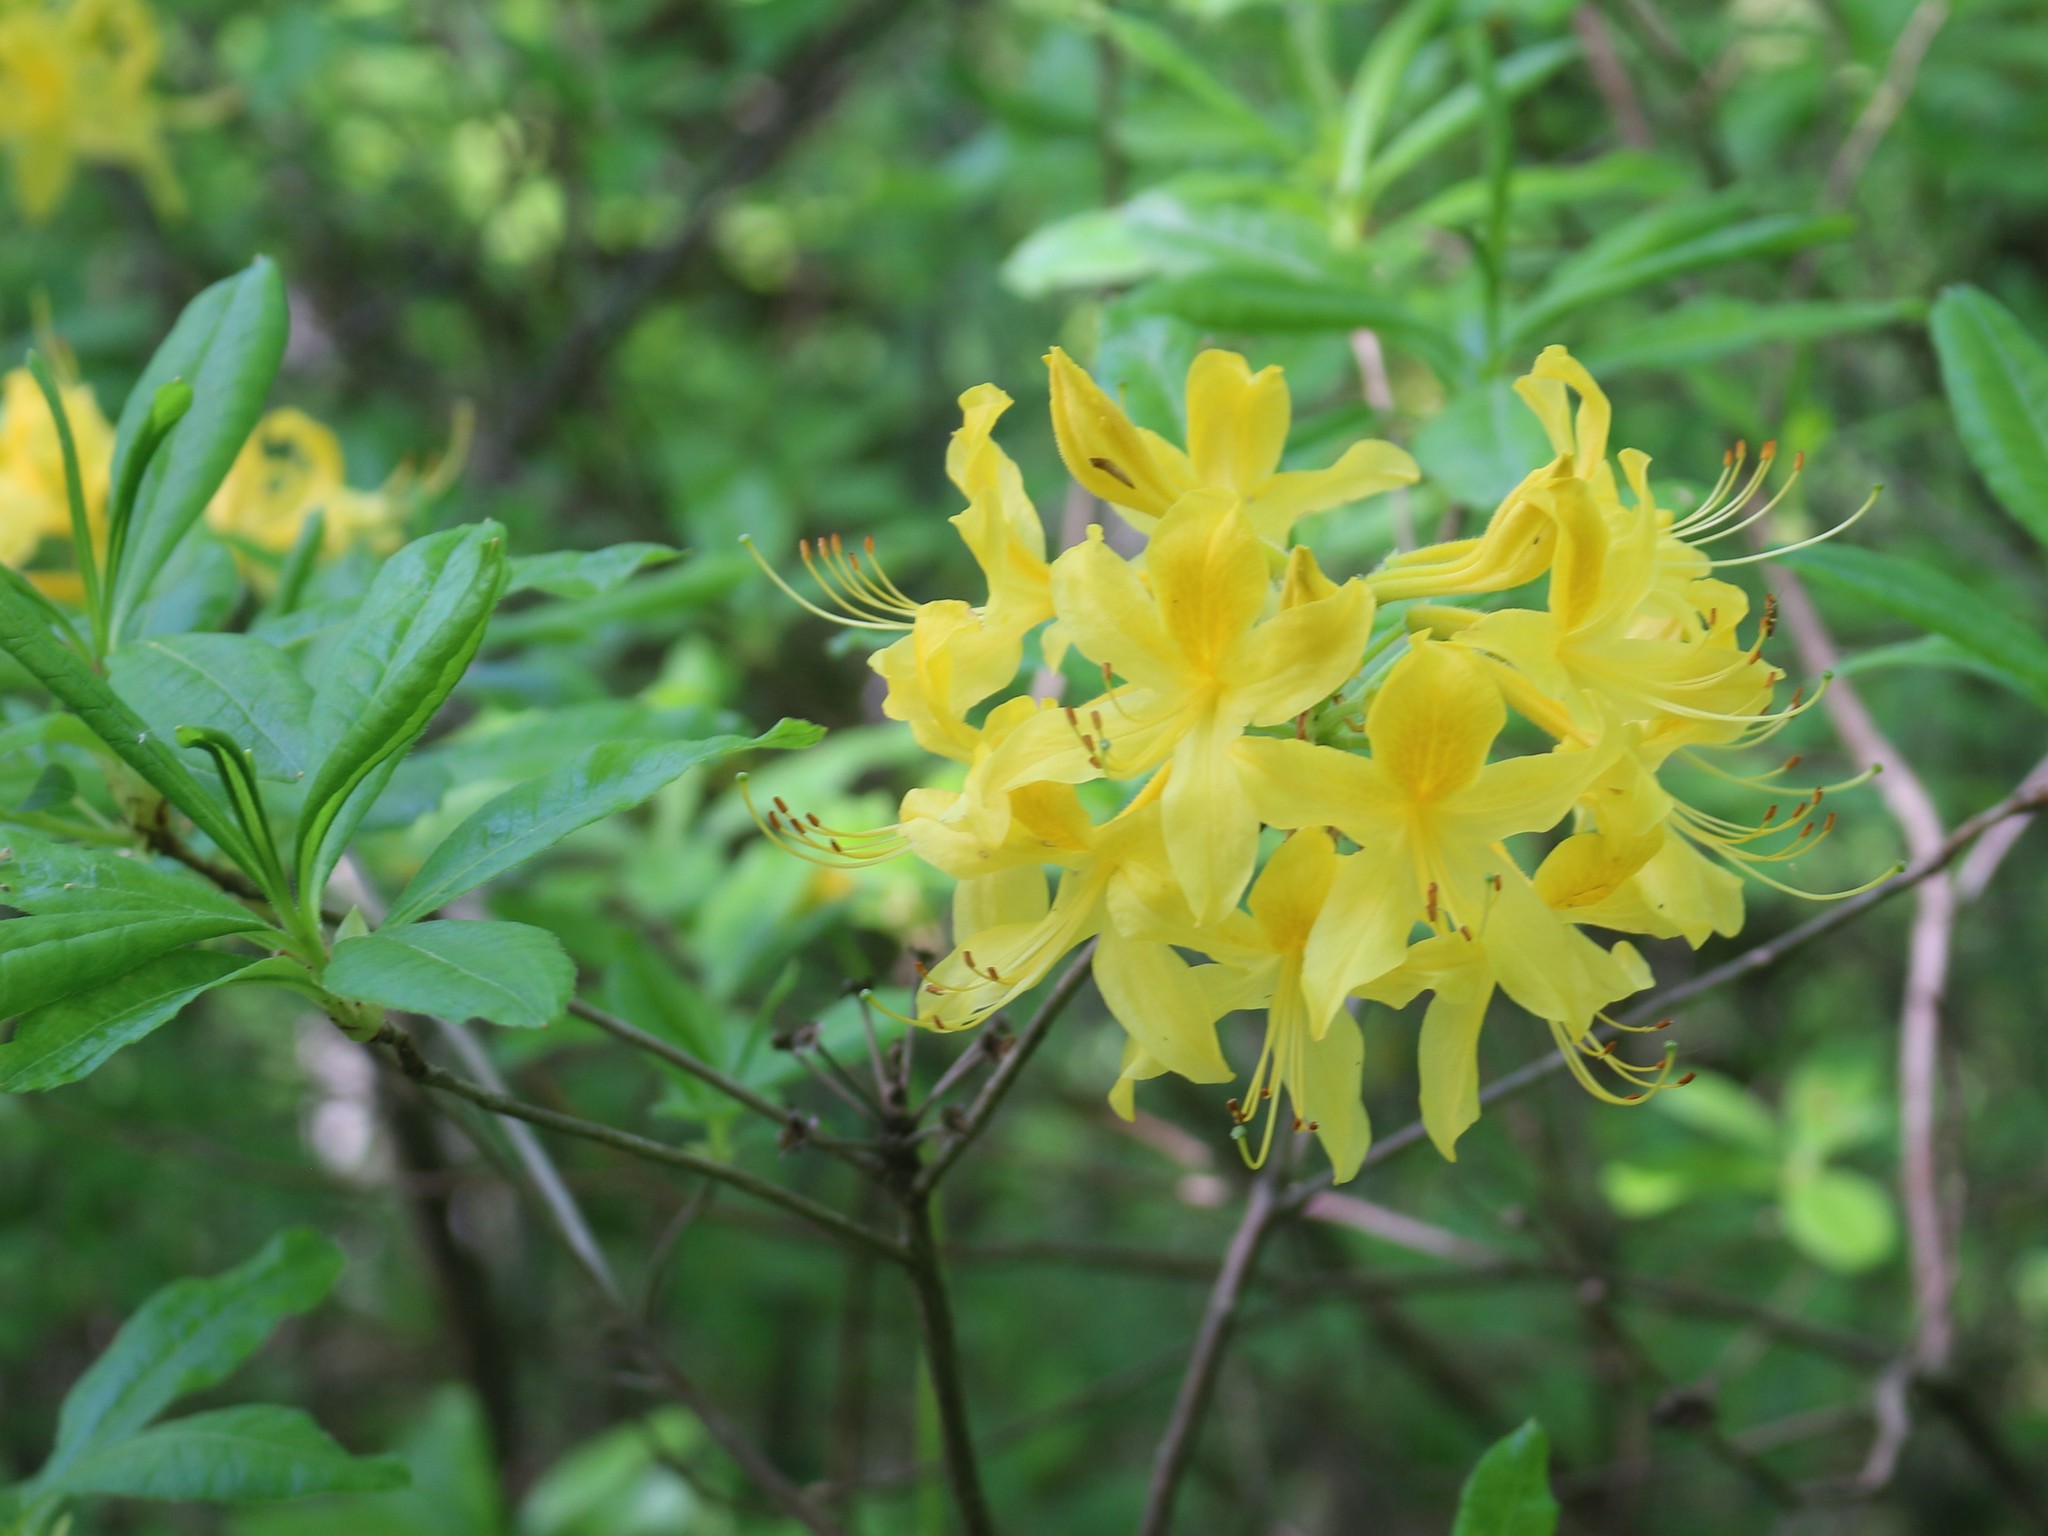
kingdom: Plantae
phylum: Tracheophyta
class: Magnoliopsida
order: Ericales
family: Ericaceae
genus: Rhododendron
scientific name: Rhododendron luteum
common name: Yellow azalea
